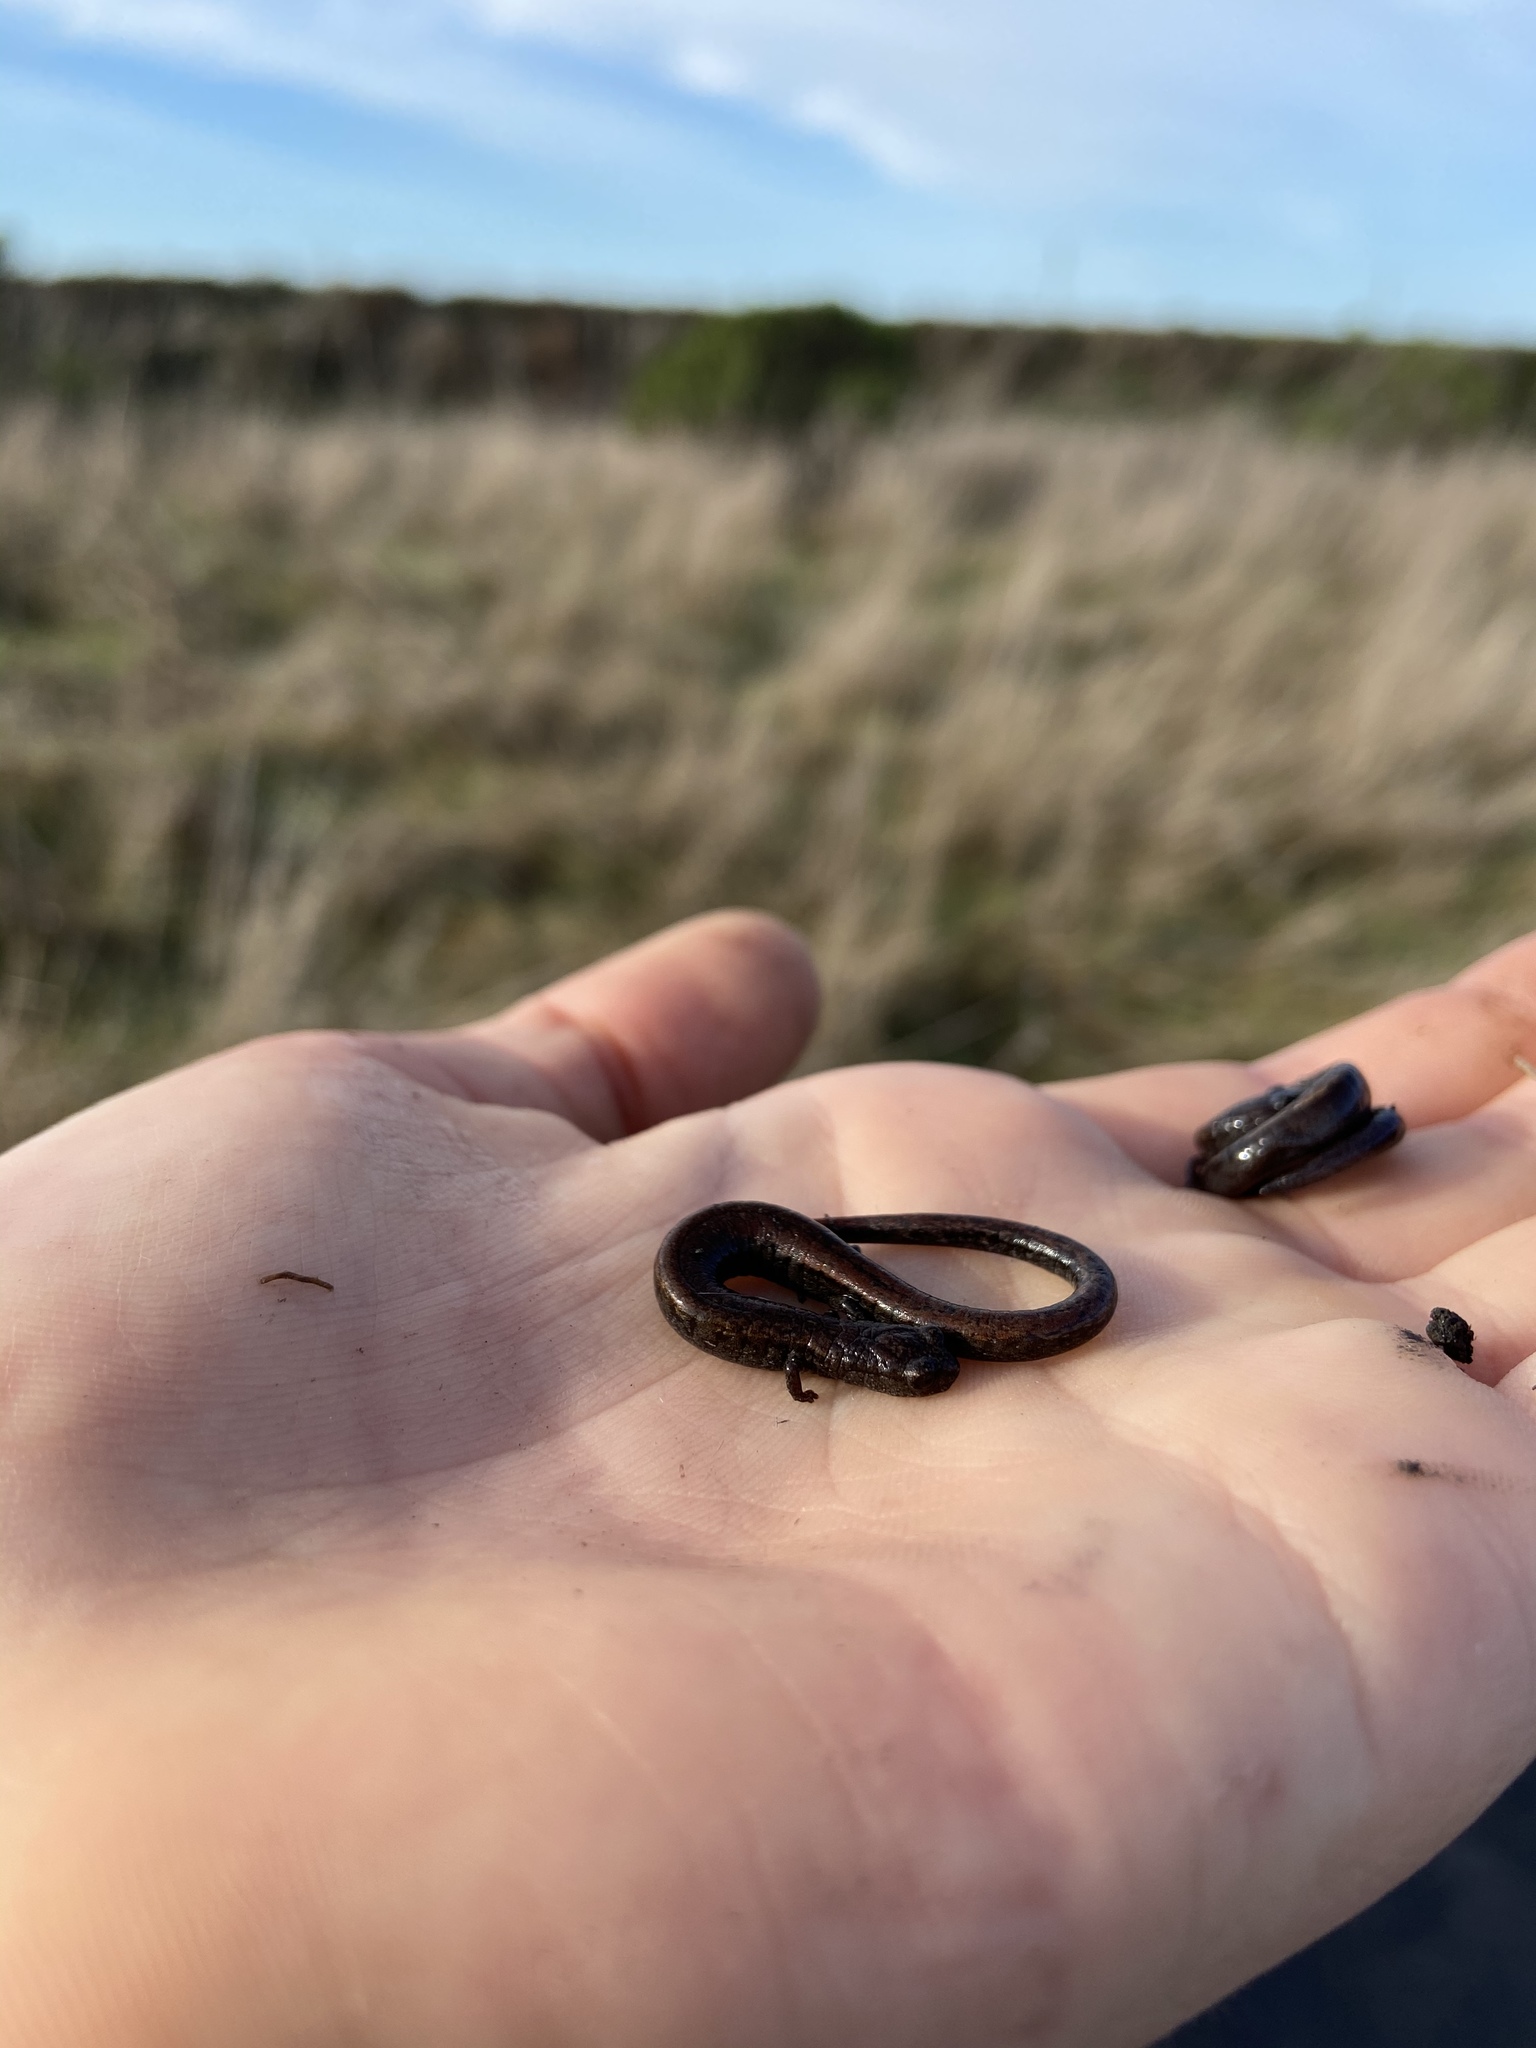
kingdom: Animalia
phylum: Chordata
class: Amphibia
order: Caudata
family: Plethodontidae
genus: Batrachoseps
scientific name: Batrachoseps attenuatus
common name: California slender salamander
